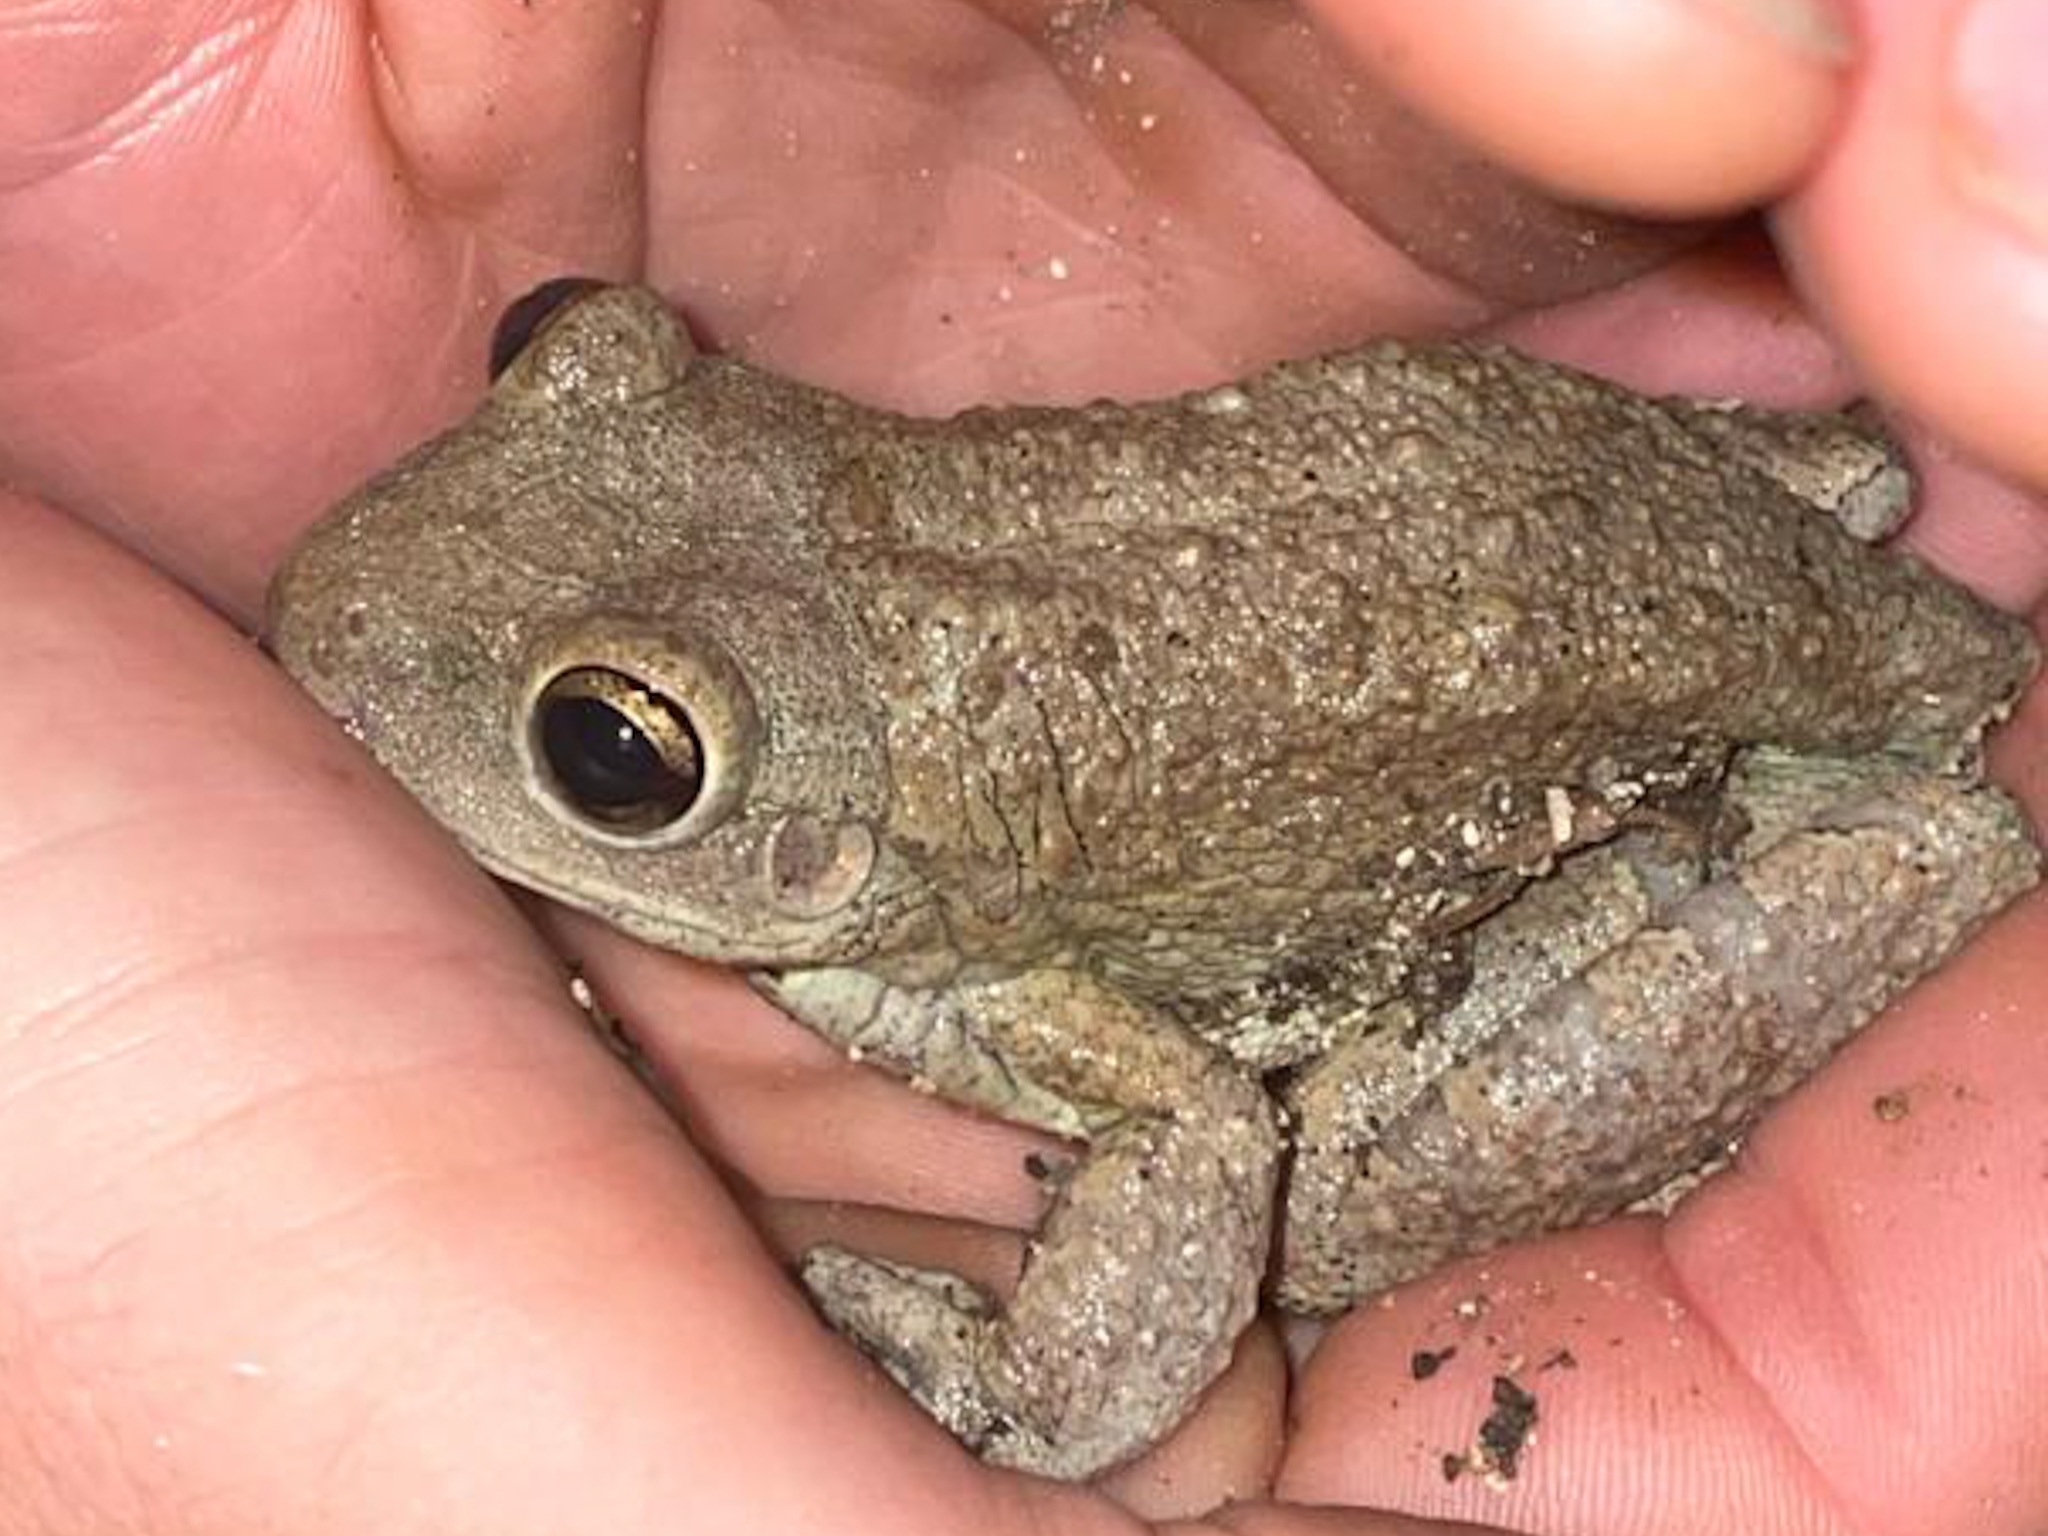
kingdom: Animalia
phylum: Chordata
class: Amphibia
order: Anura
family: Hylidae
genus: Osteopilus
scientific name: Osteopilus septentrionalis
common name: Cuban treefrog
